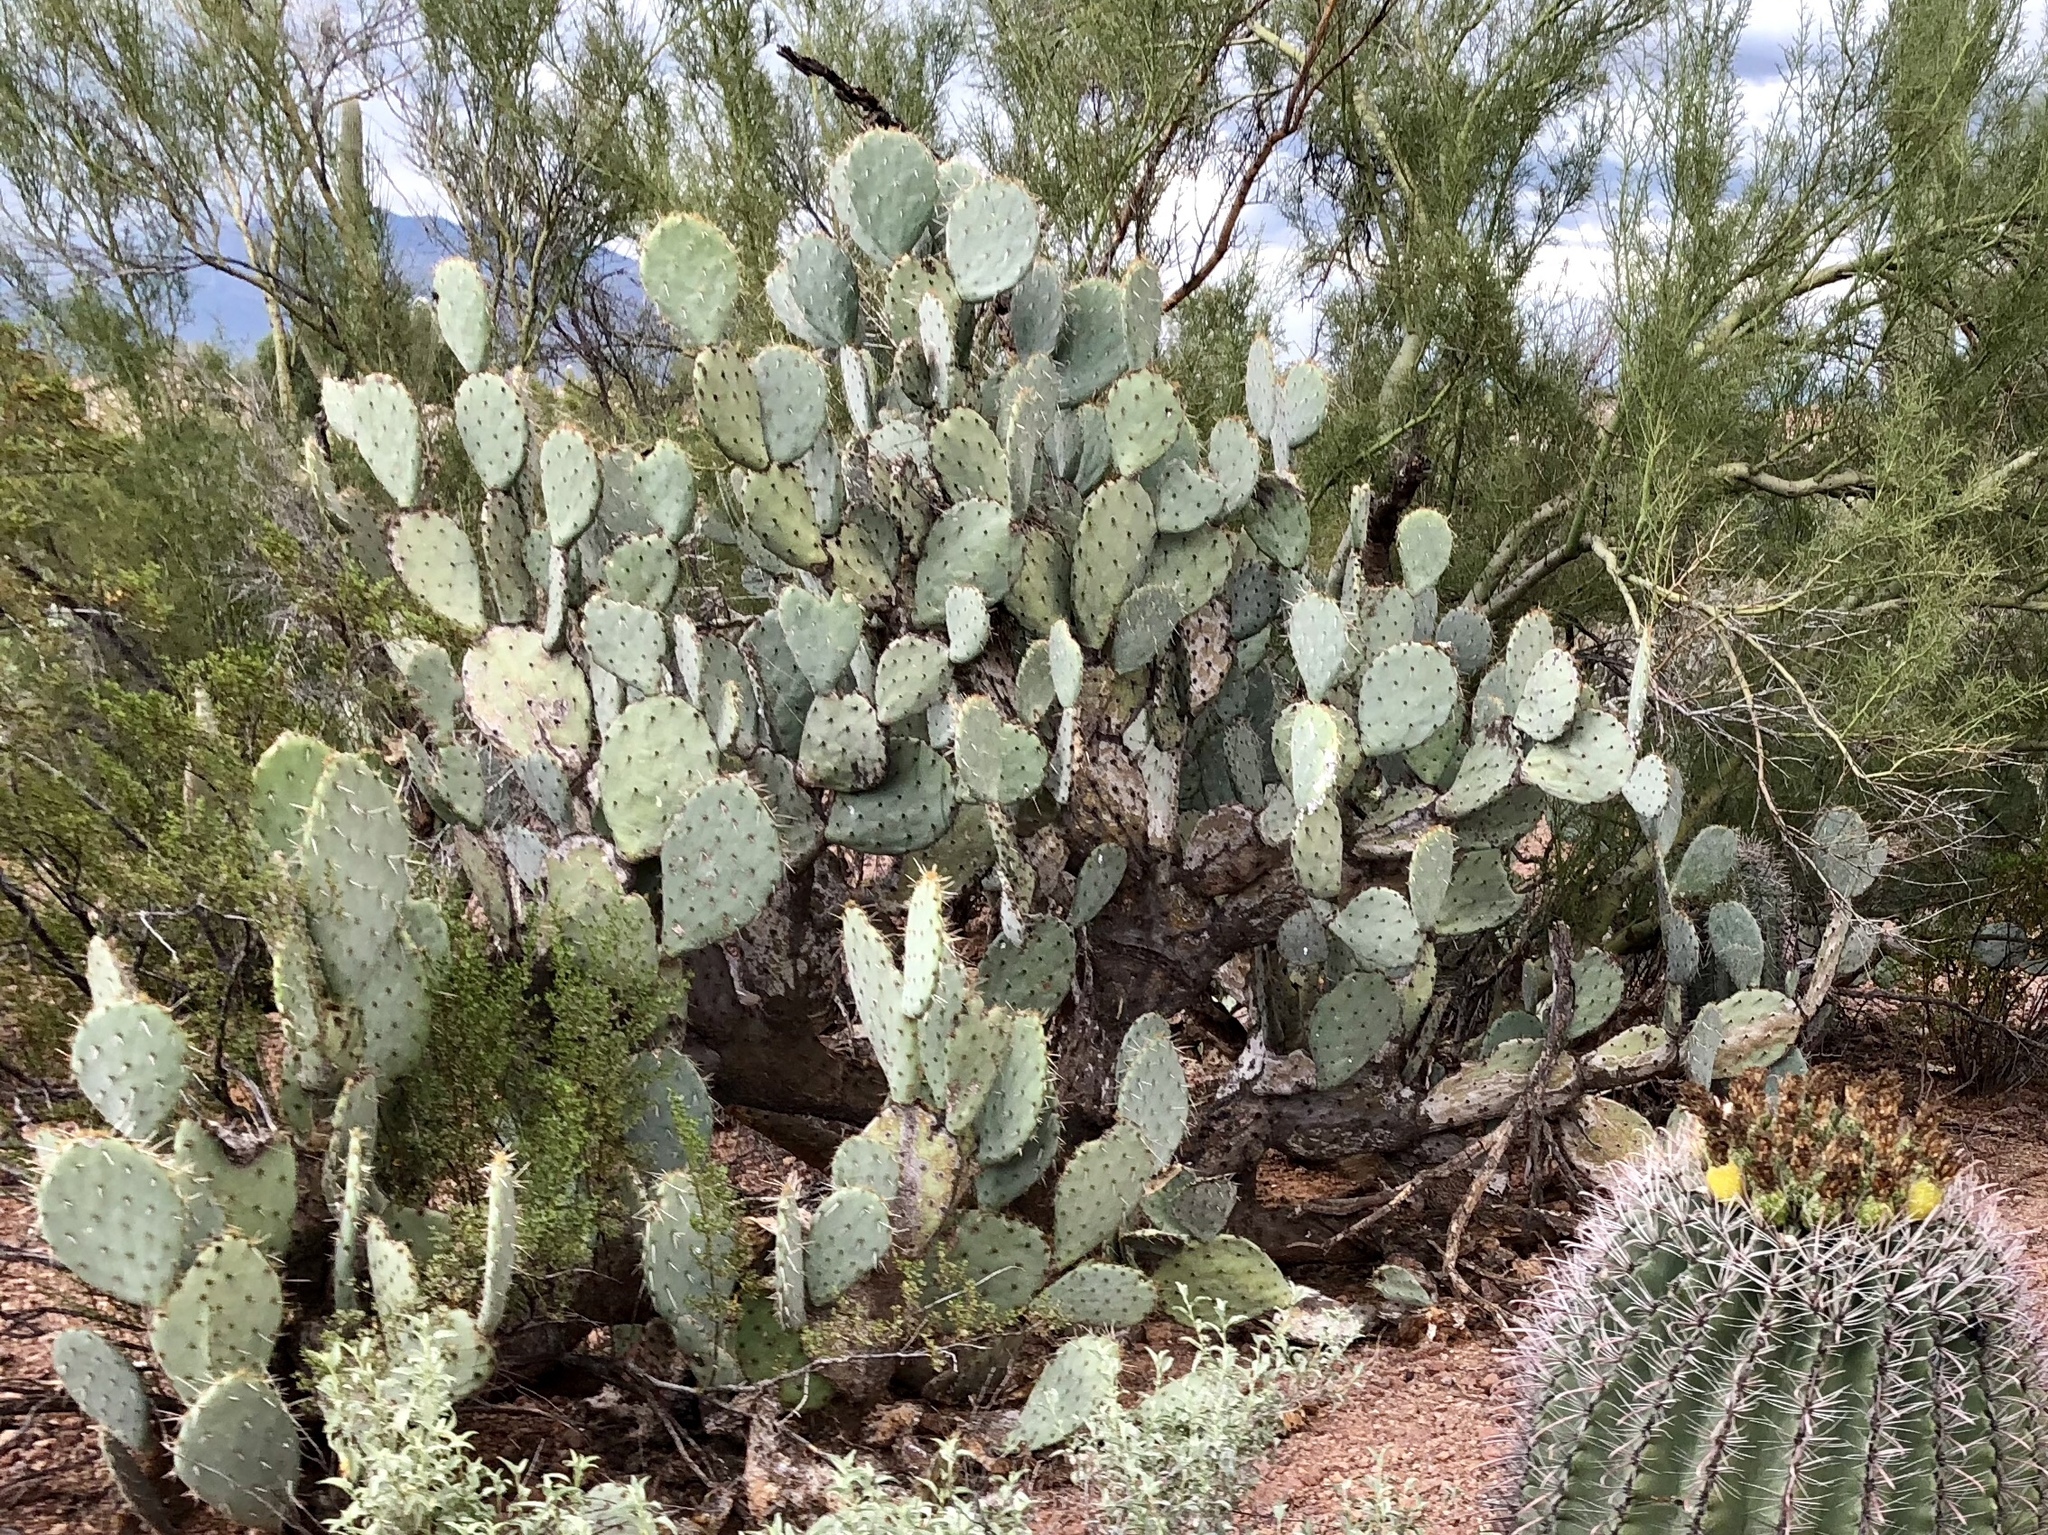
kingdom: Plantae
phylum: Tracheophyta
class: Magnoliopsida
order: Caryophyllales
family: Cactaceae
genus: Opuntia
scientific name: Opuntia engelmannii
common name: Cactus-apple
